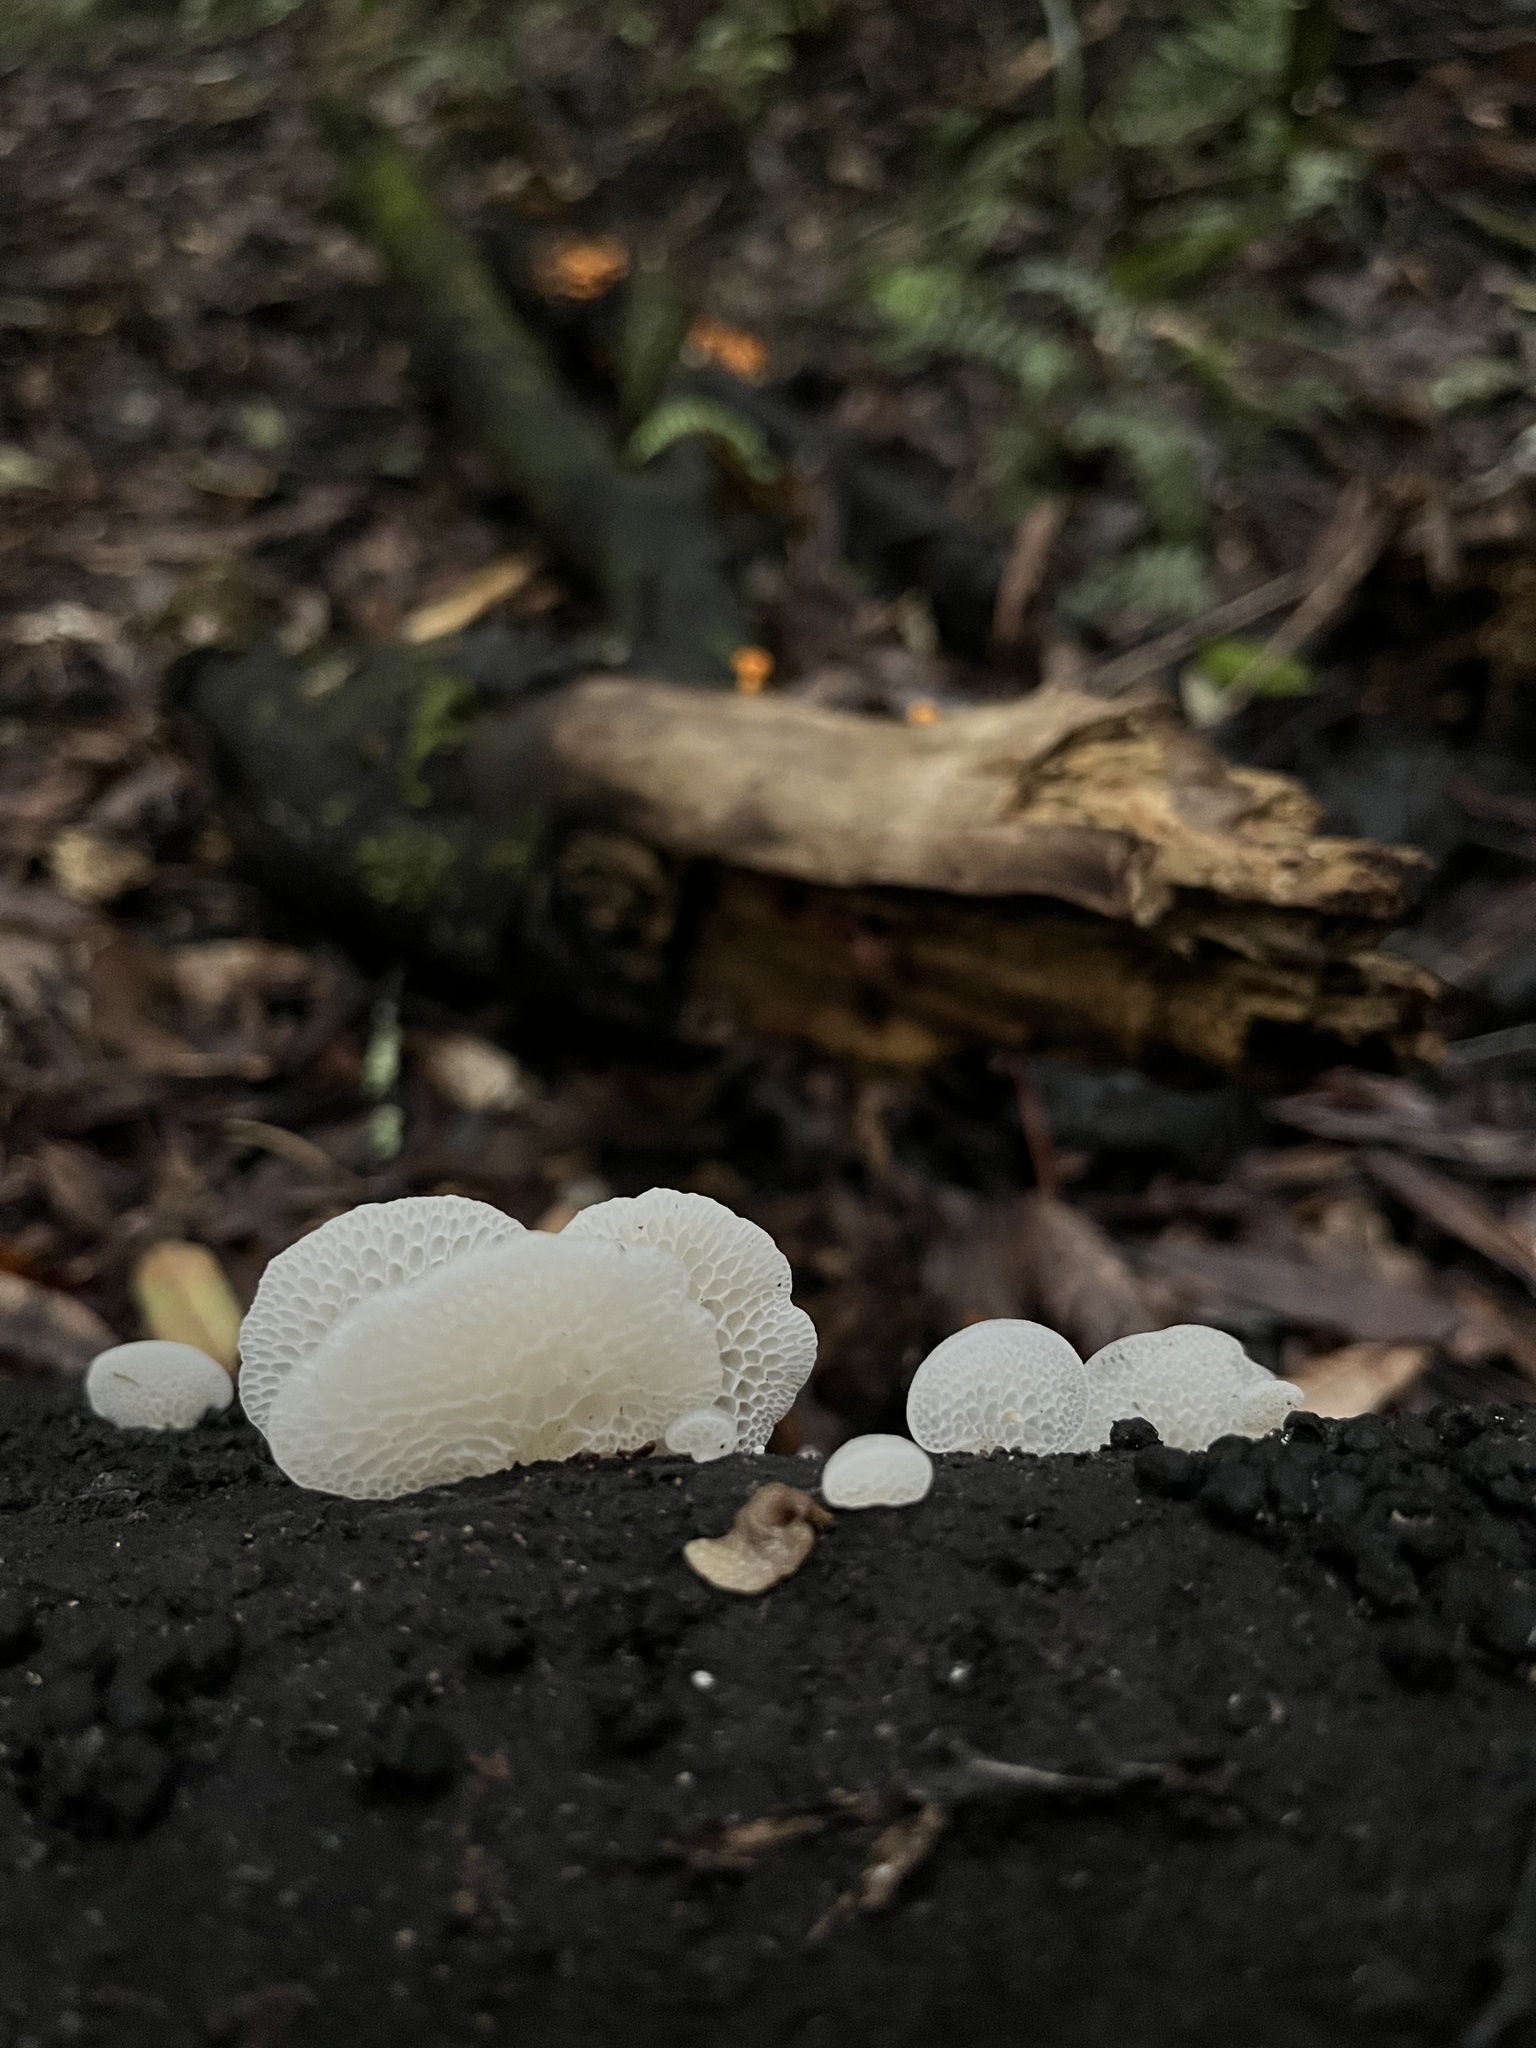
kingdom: Fungi
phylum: Basidiomycota
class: Agaricomycetes
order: Agaricales
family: Mycenaceae
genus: Favolaschia
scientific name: Favolaschia pustulosa
